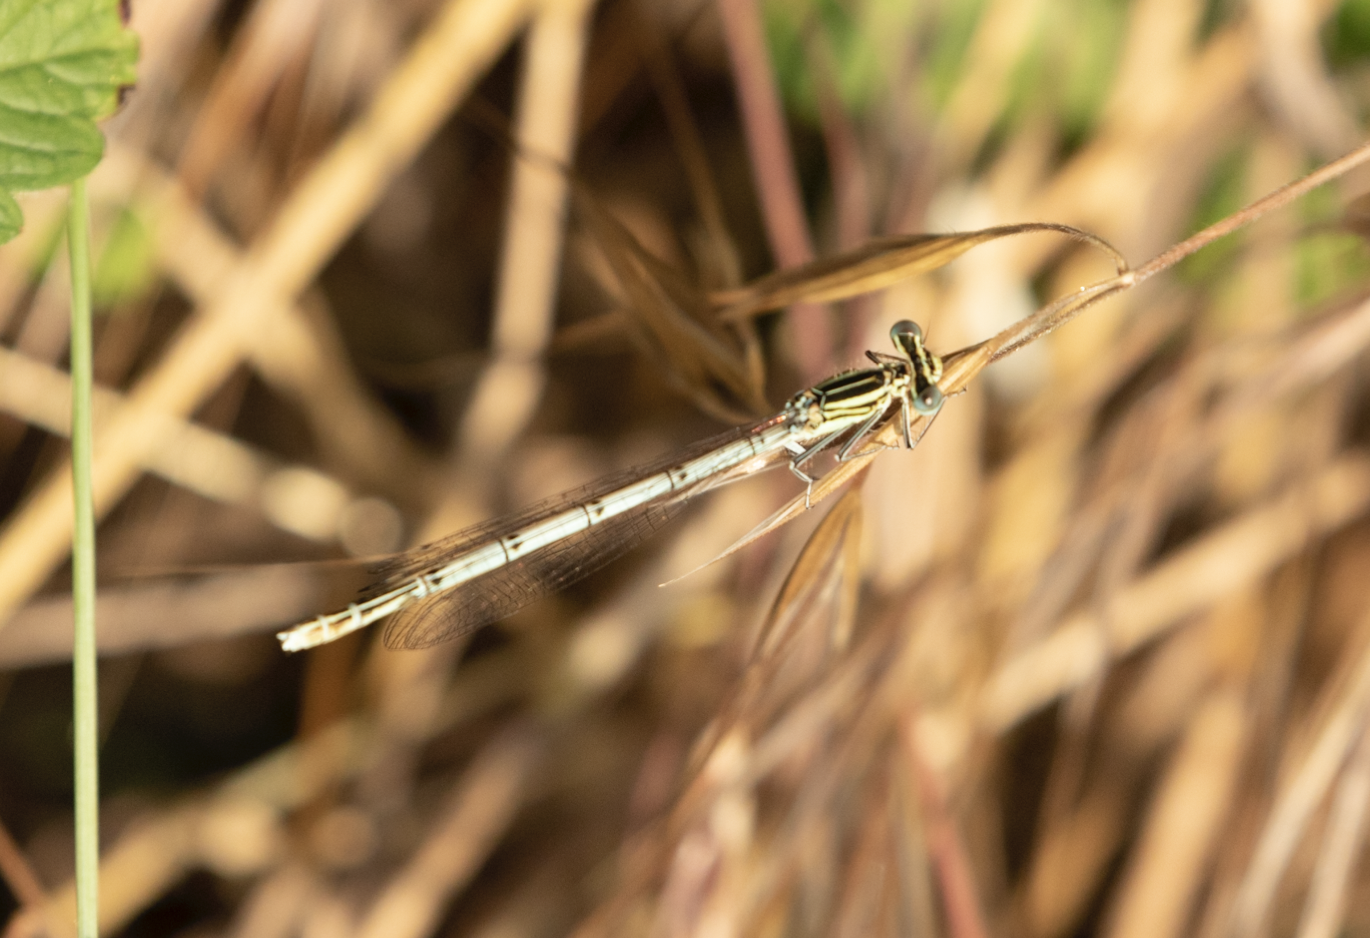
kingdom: Animalia
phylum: Arthropoda
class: Insecta
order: Odonata
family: Platycnemididae
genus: Platycnemis
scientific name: Platycnemis pennipes
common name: White-legged damselfly
